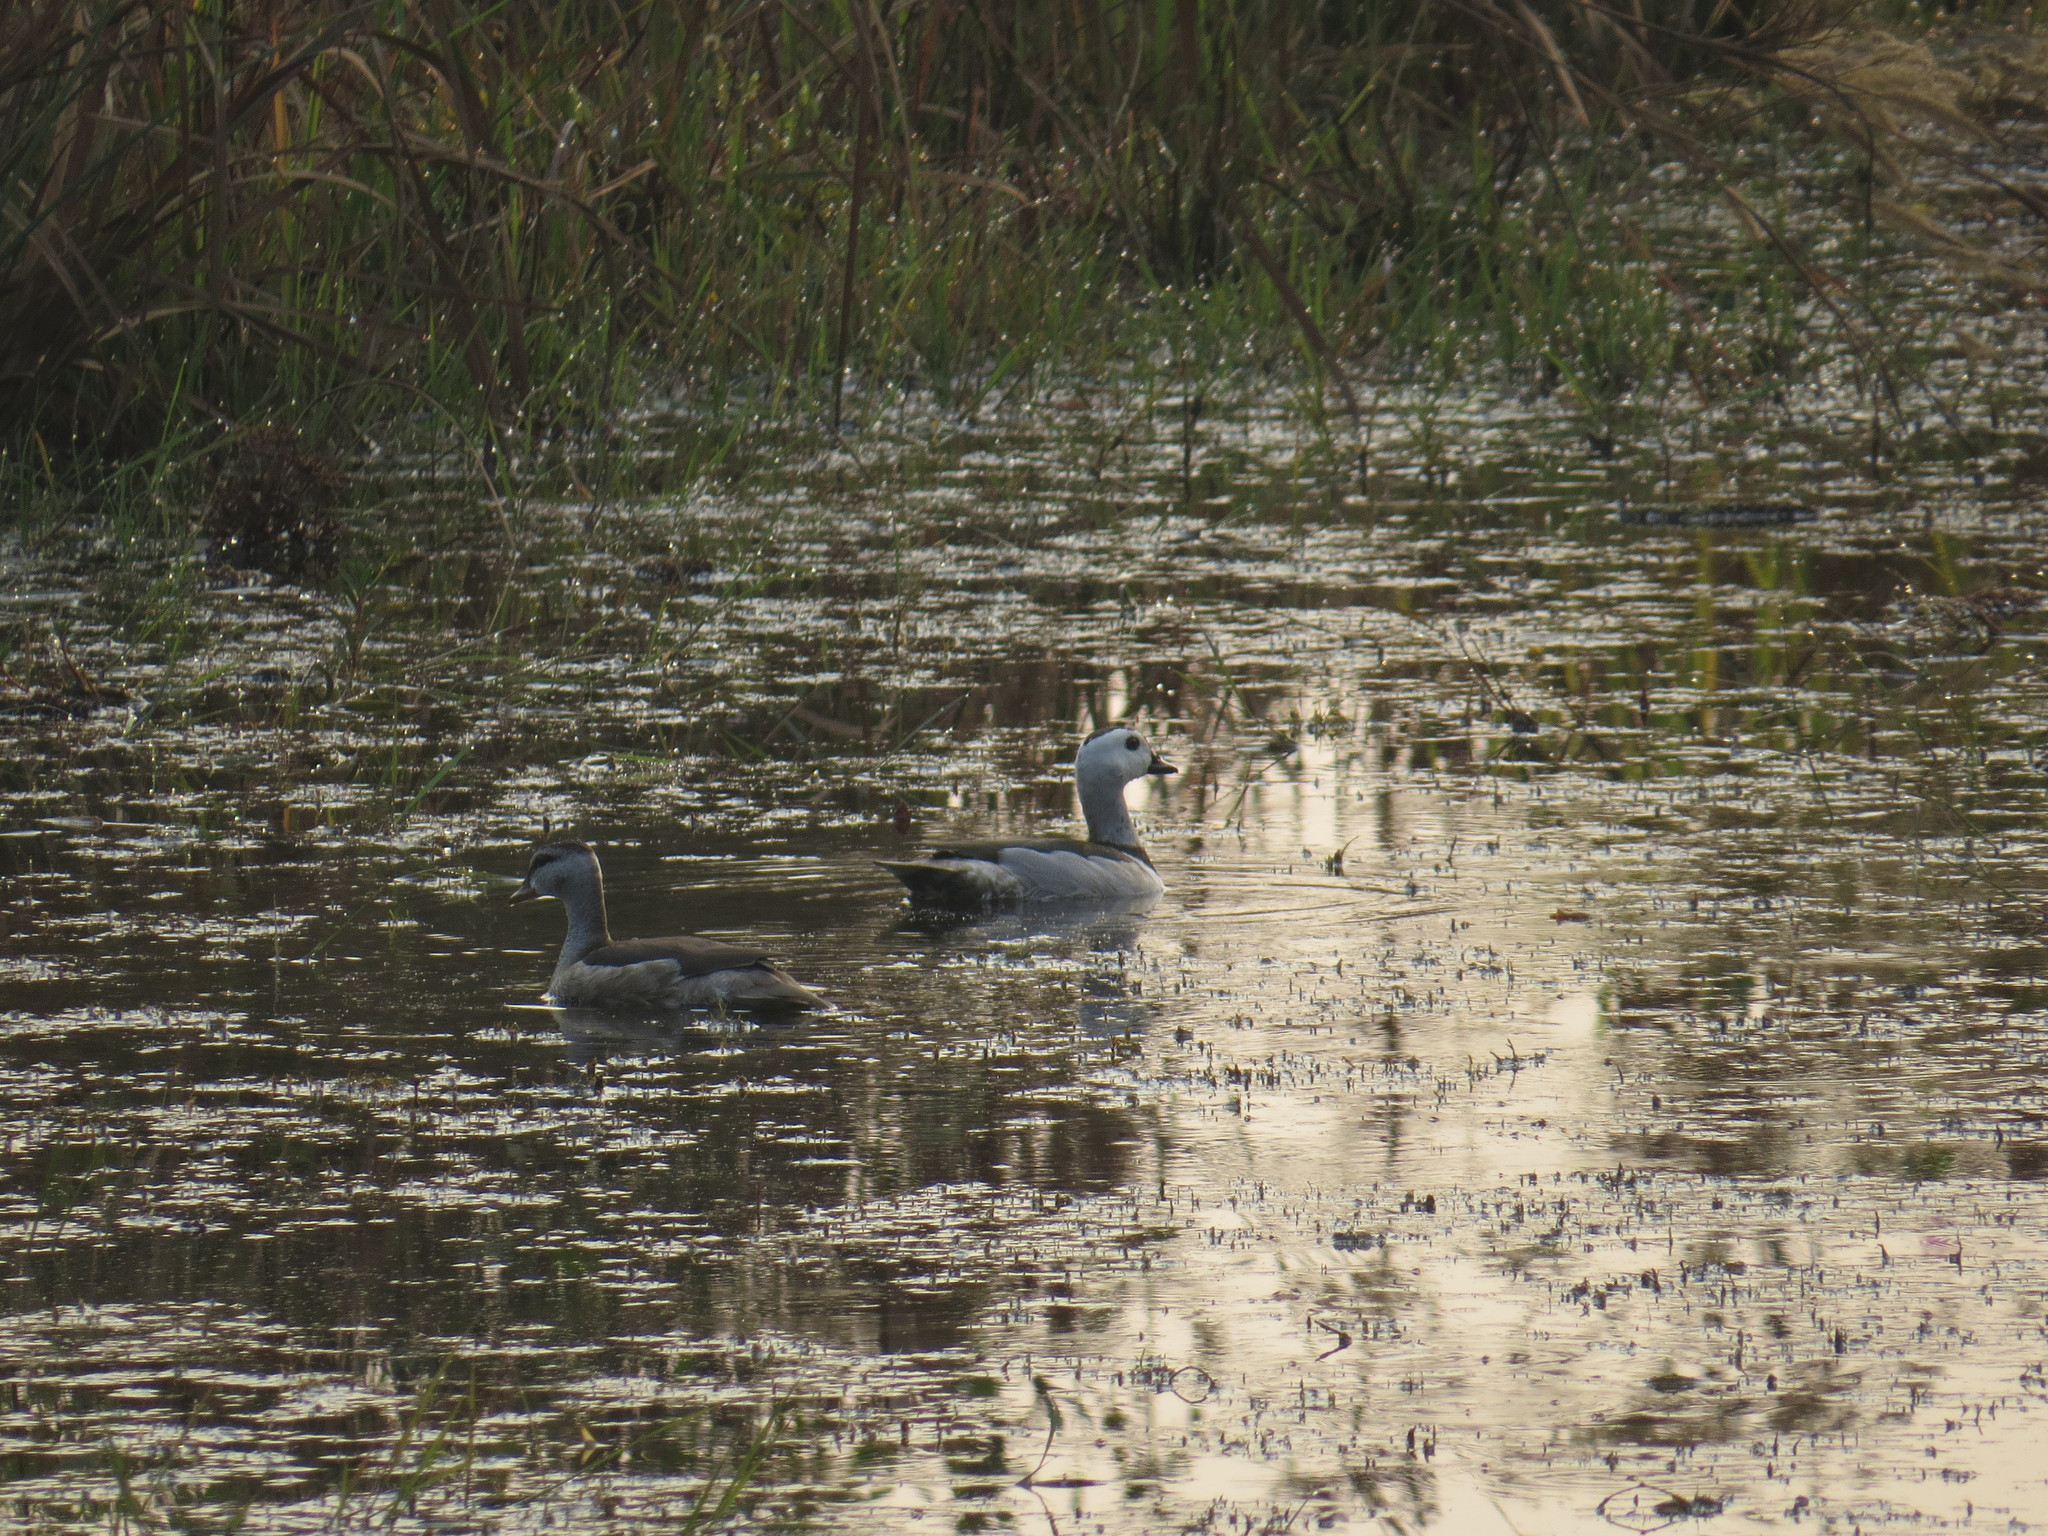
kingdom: Animalia
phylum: Chordata
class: Aves
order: Anseriformes
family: Anatidae
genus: Nettapus
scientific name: Nettapus coromandelianus
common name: Cotton pygmy-goose
